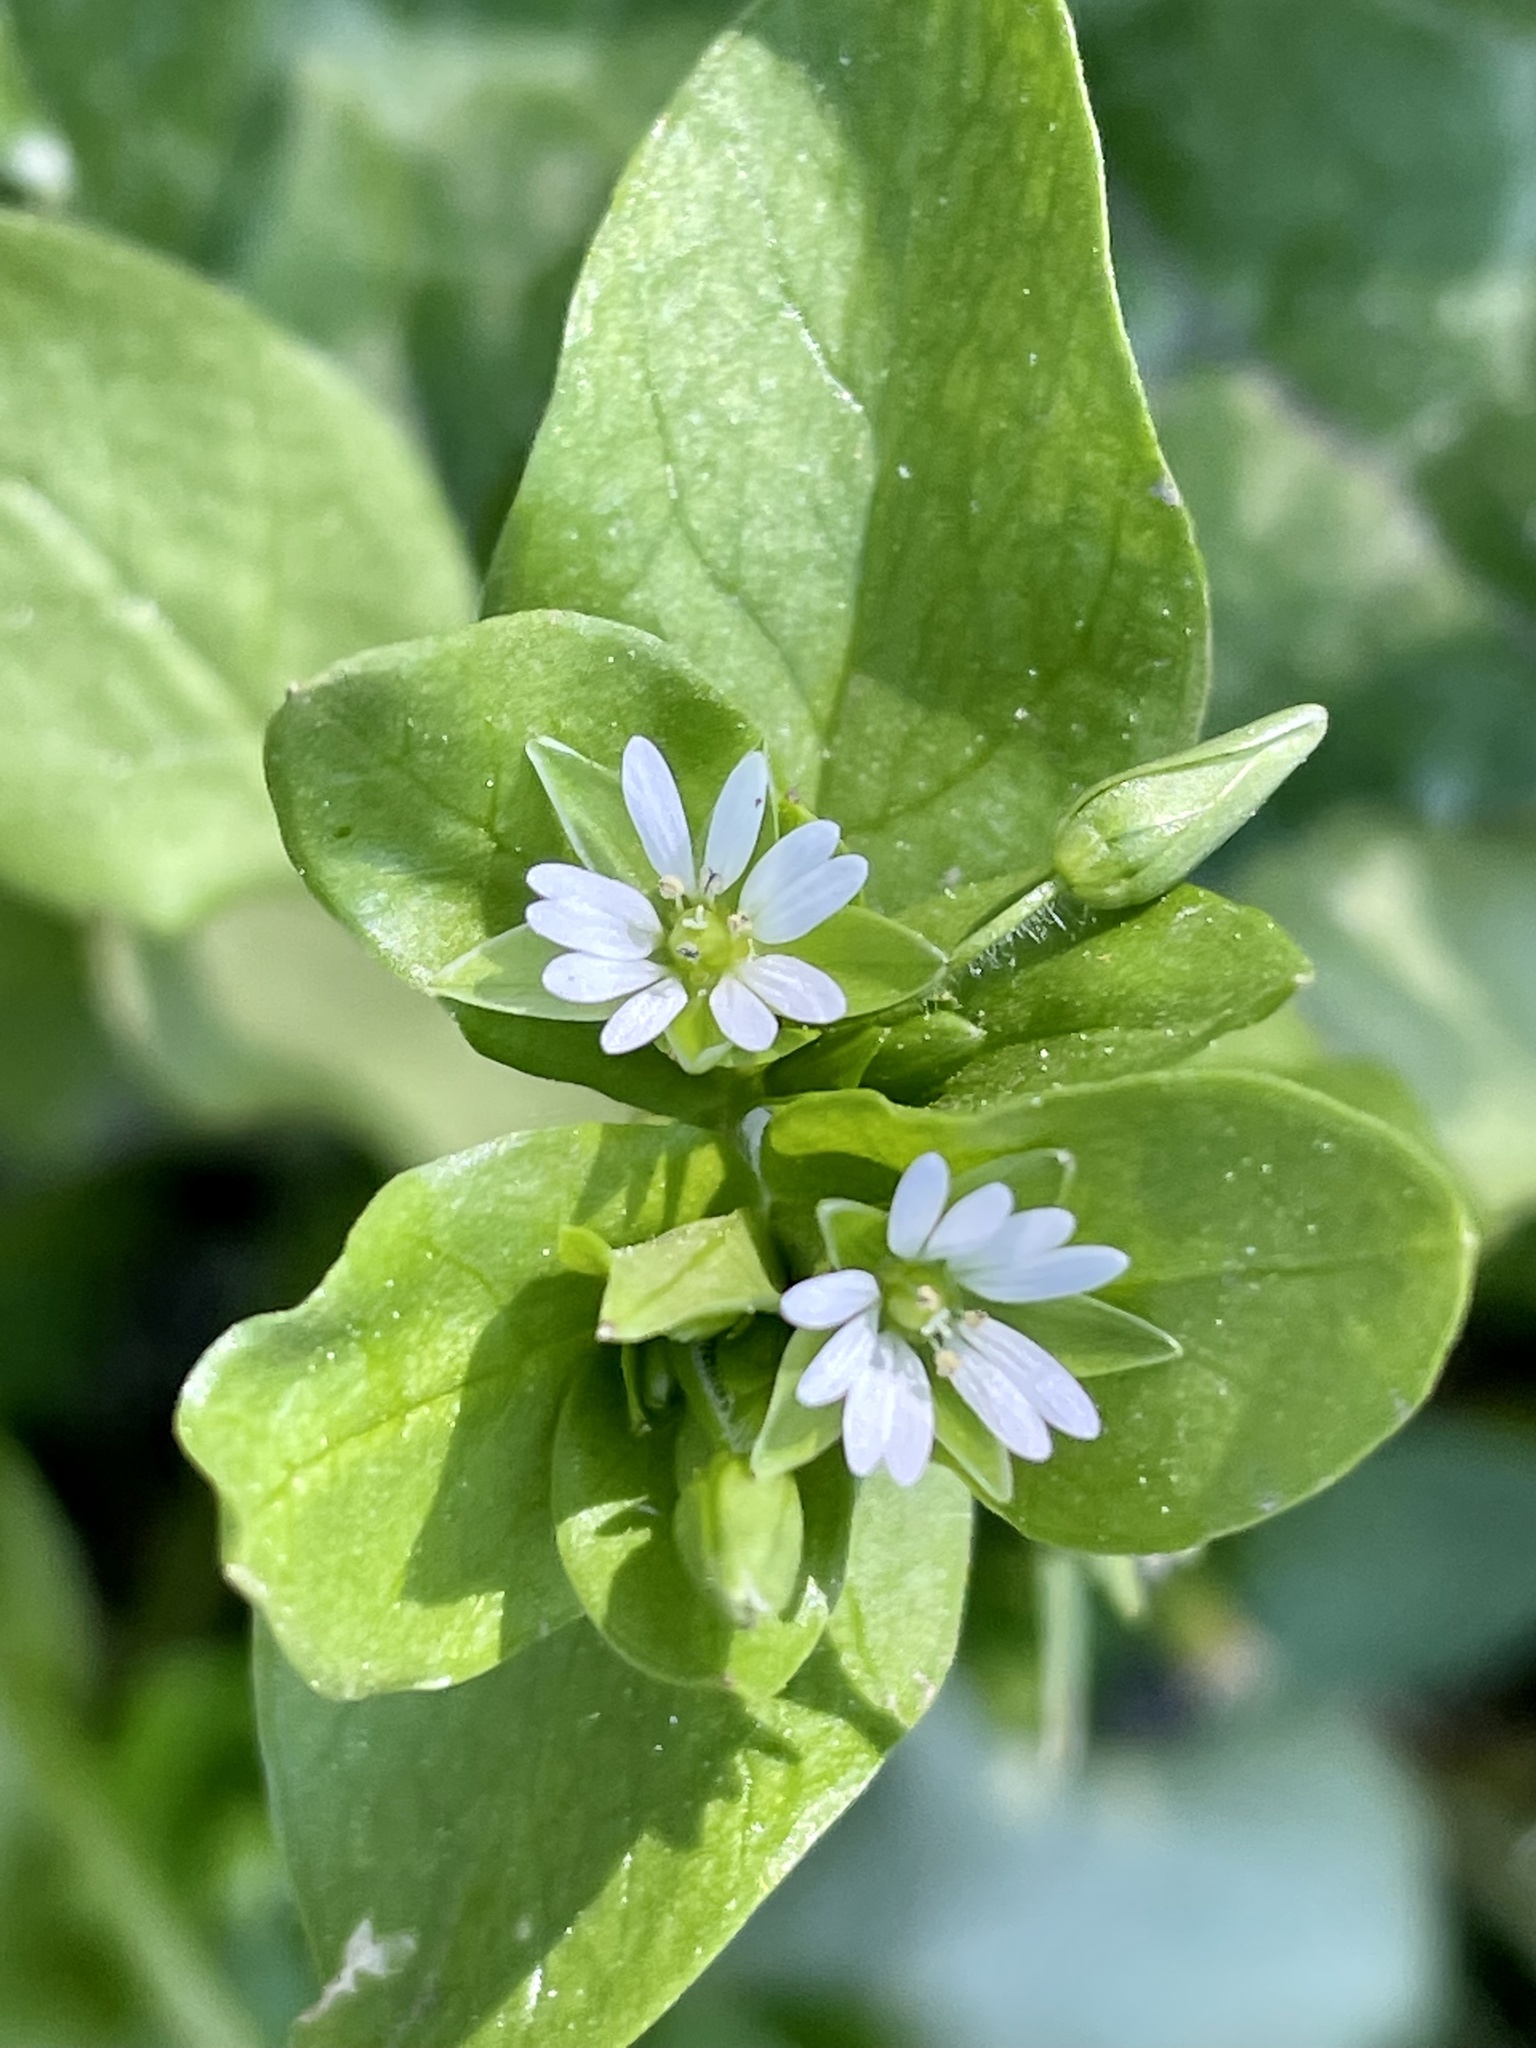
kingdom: Plantae
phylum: Tracheophyta
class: Magnoliopsida
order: Caryophyllales
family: Caryophyllaceae
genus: Stellaria
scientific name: Stellaria media
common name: Common chickweed
